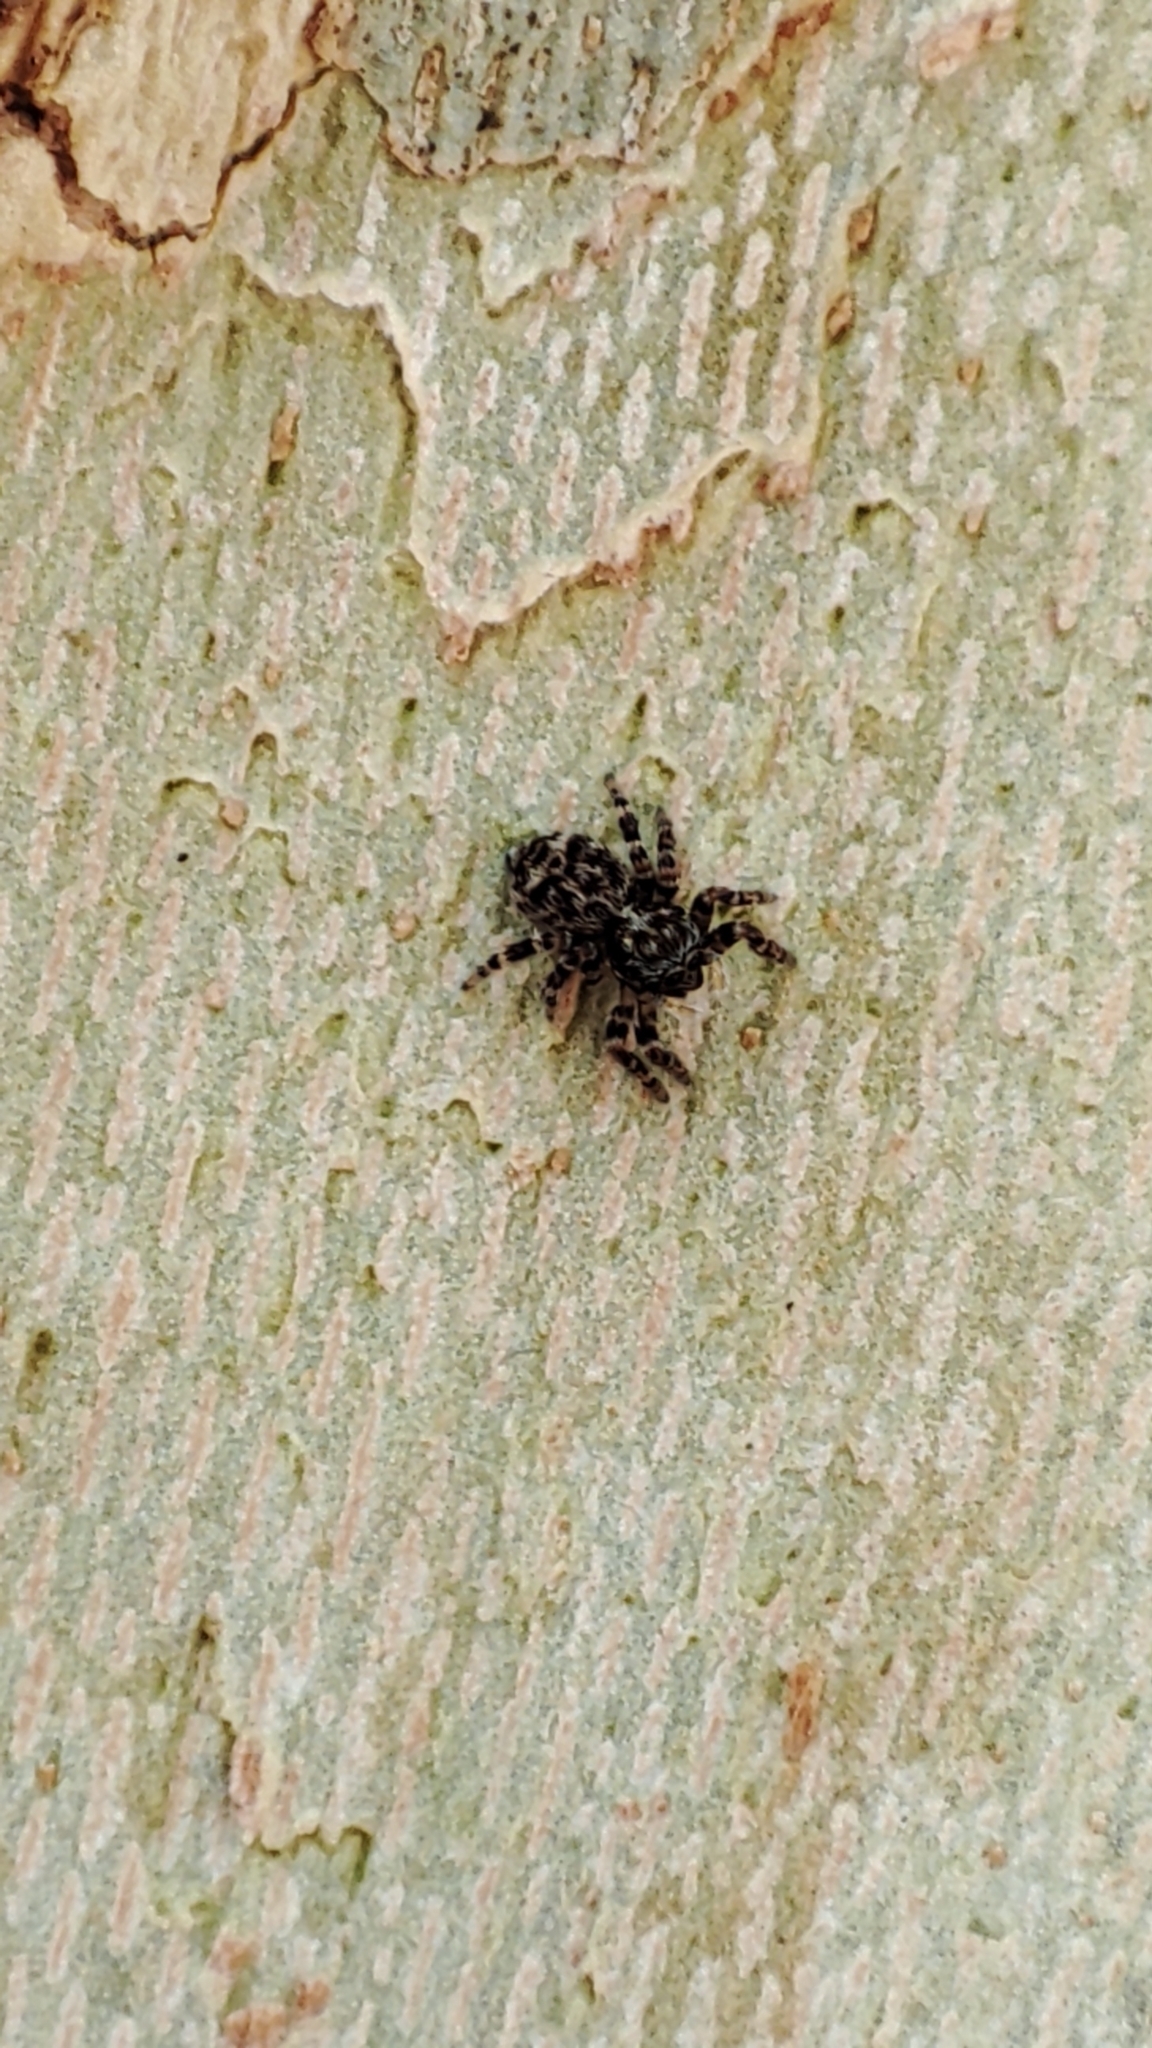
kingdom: Animalia
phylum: Arthropoda
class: Arachnida
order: Araneae
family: Salticidae
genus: Pseudeuophrys
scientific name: Pseudeuophrys erratica
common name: Jumping spider
